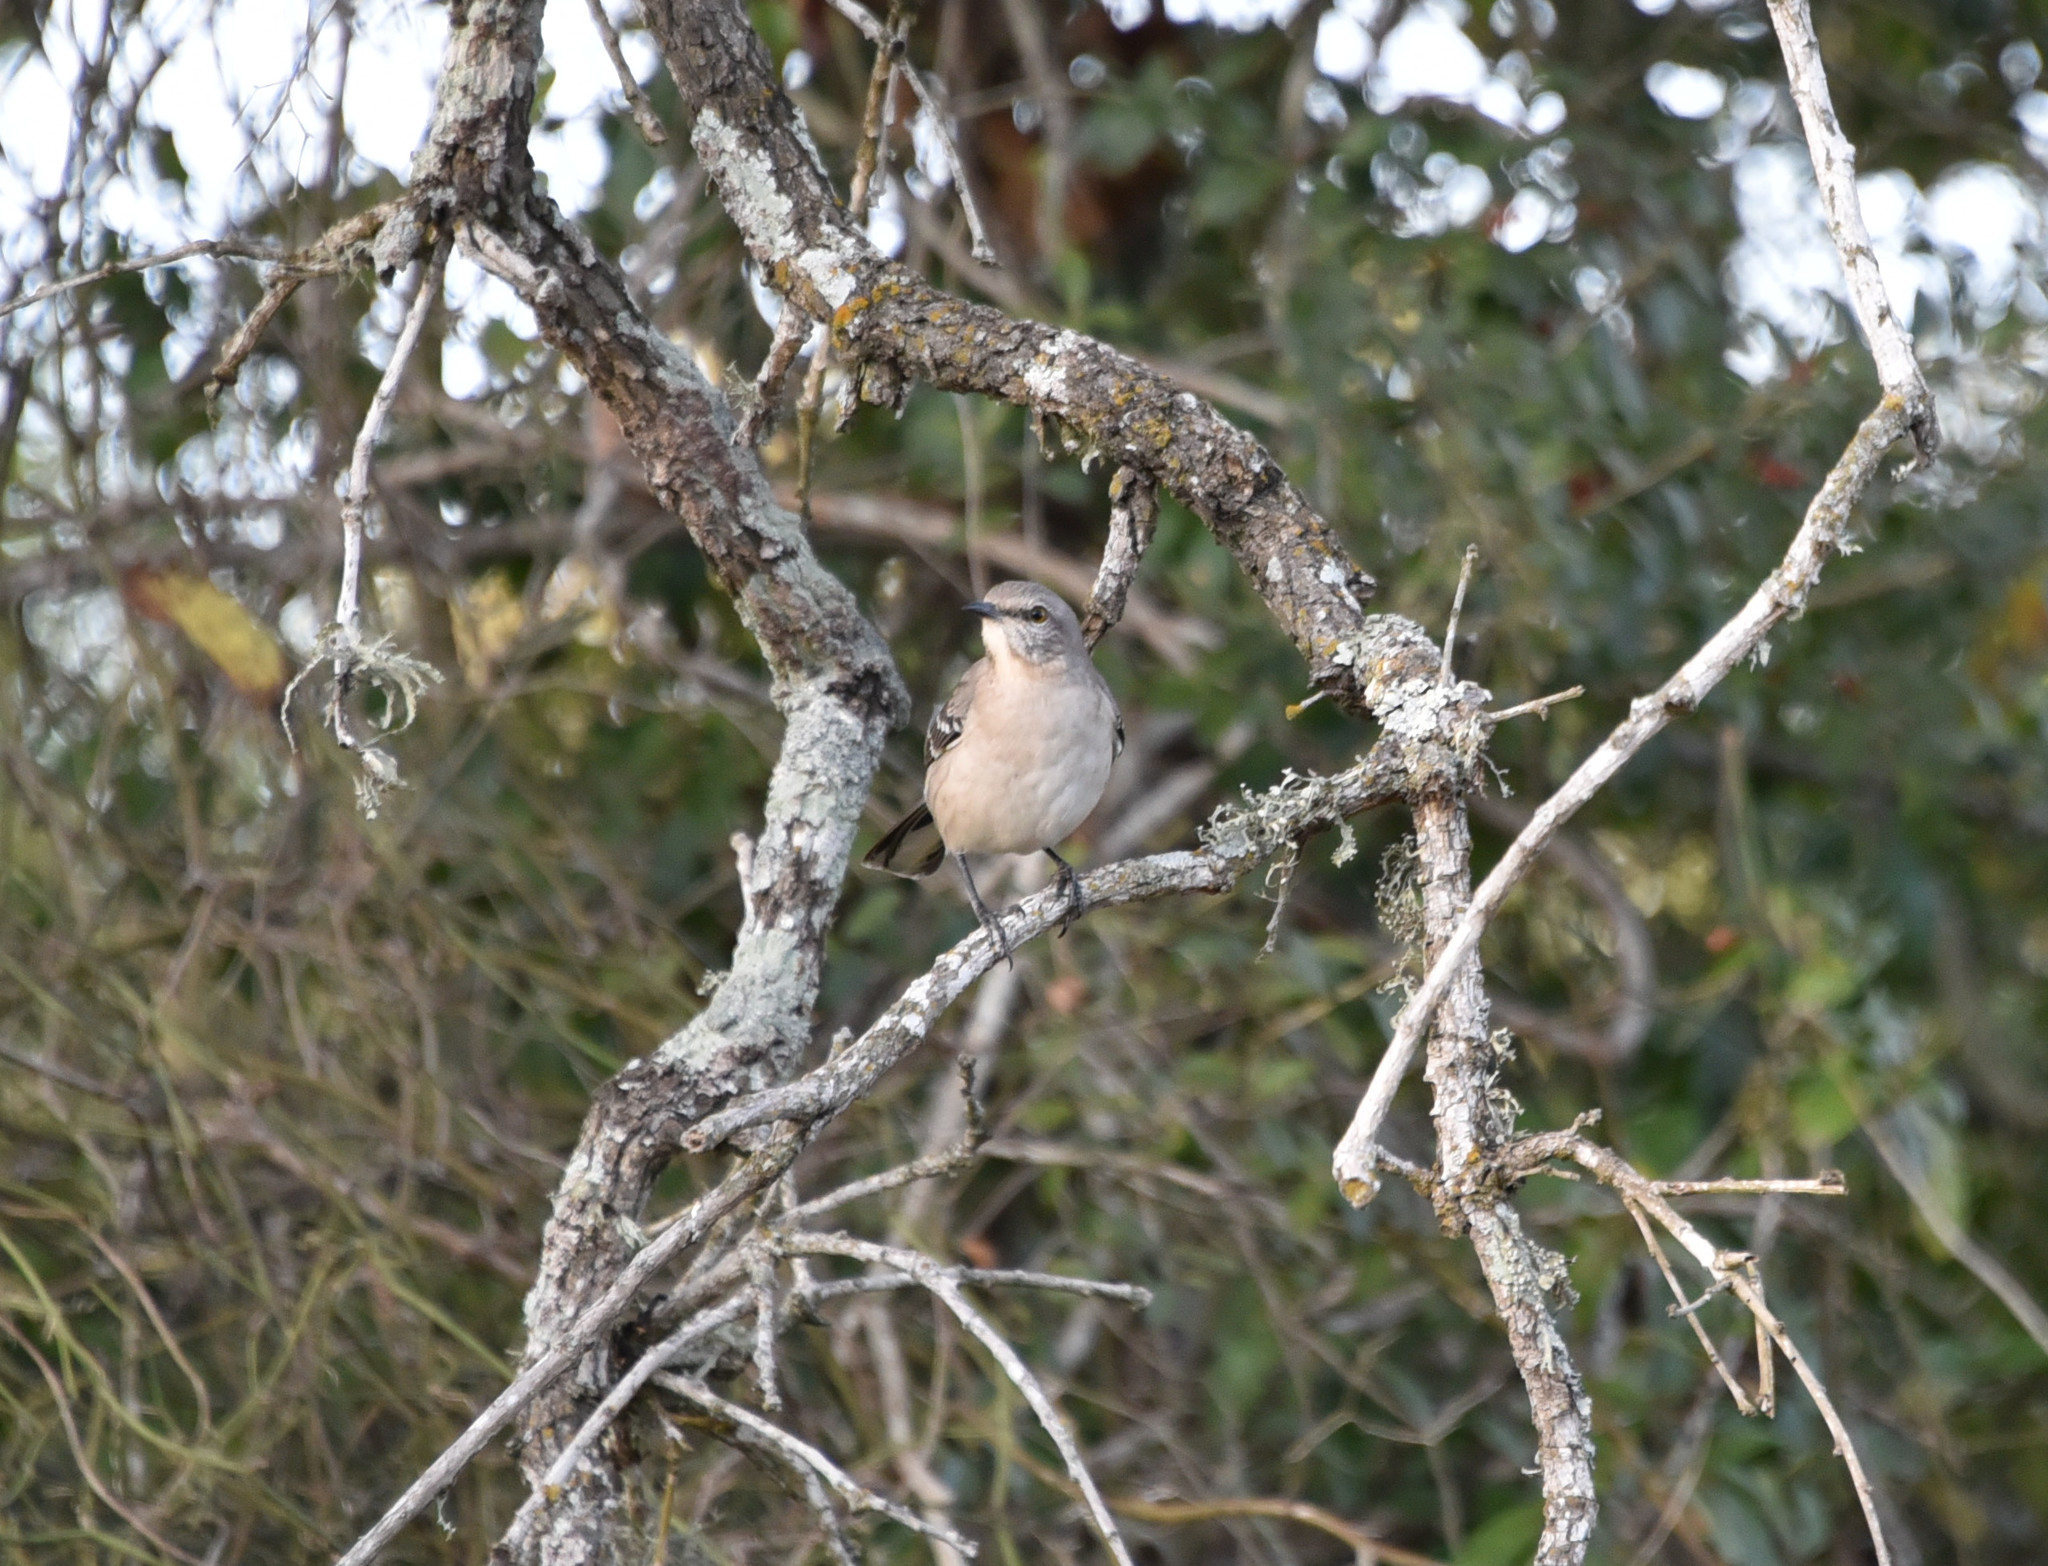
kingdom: Animalia
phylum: Chordata
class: Aves
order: Passeriformes
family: Mimidae
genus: Mimus
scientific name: Mimus polyglottos
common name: Northern mockingbird
